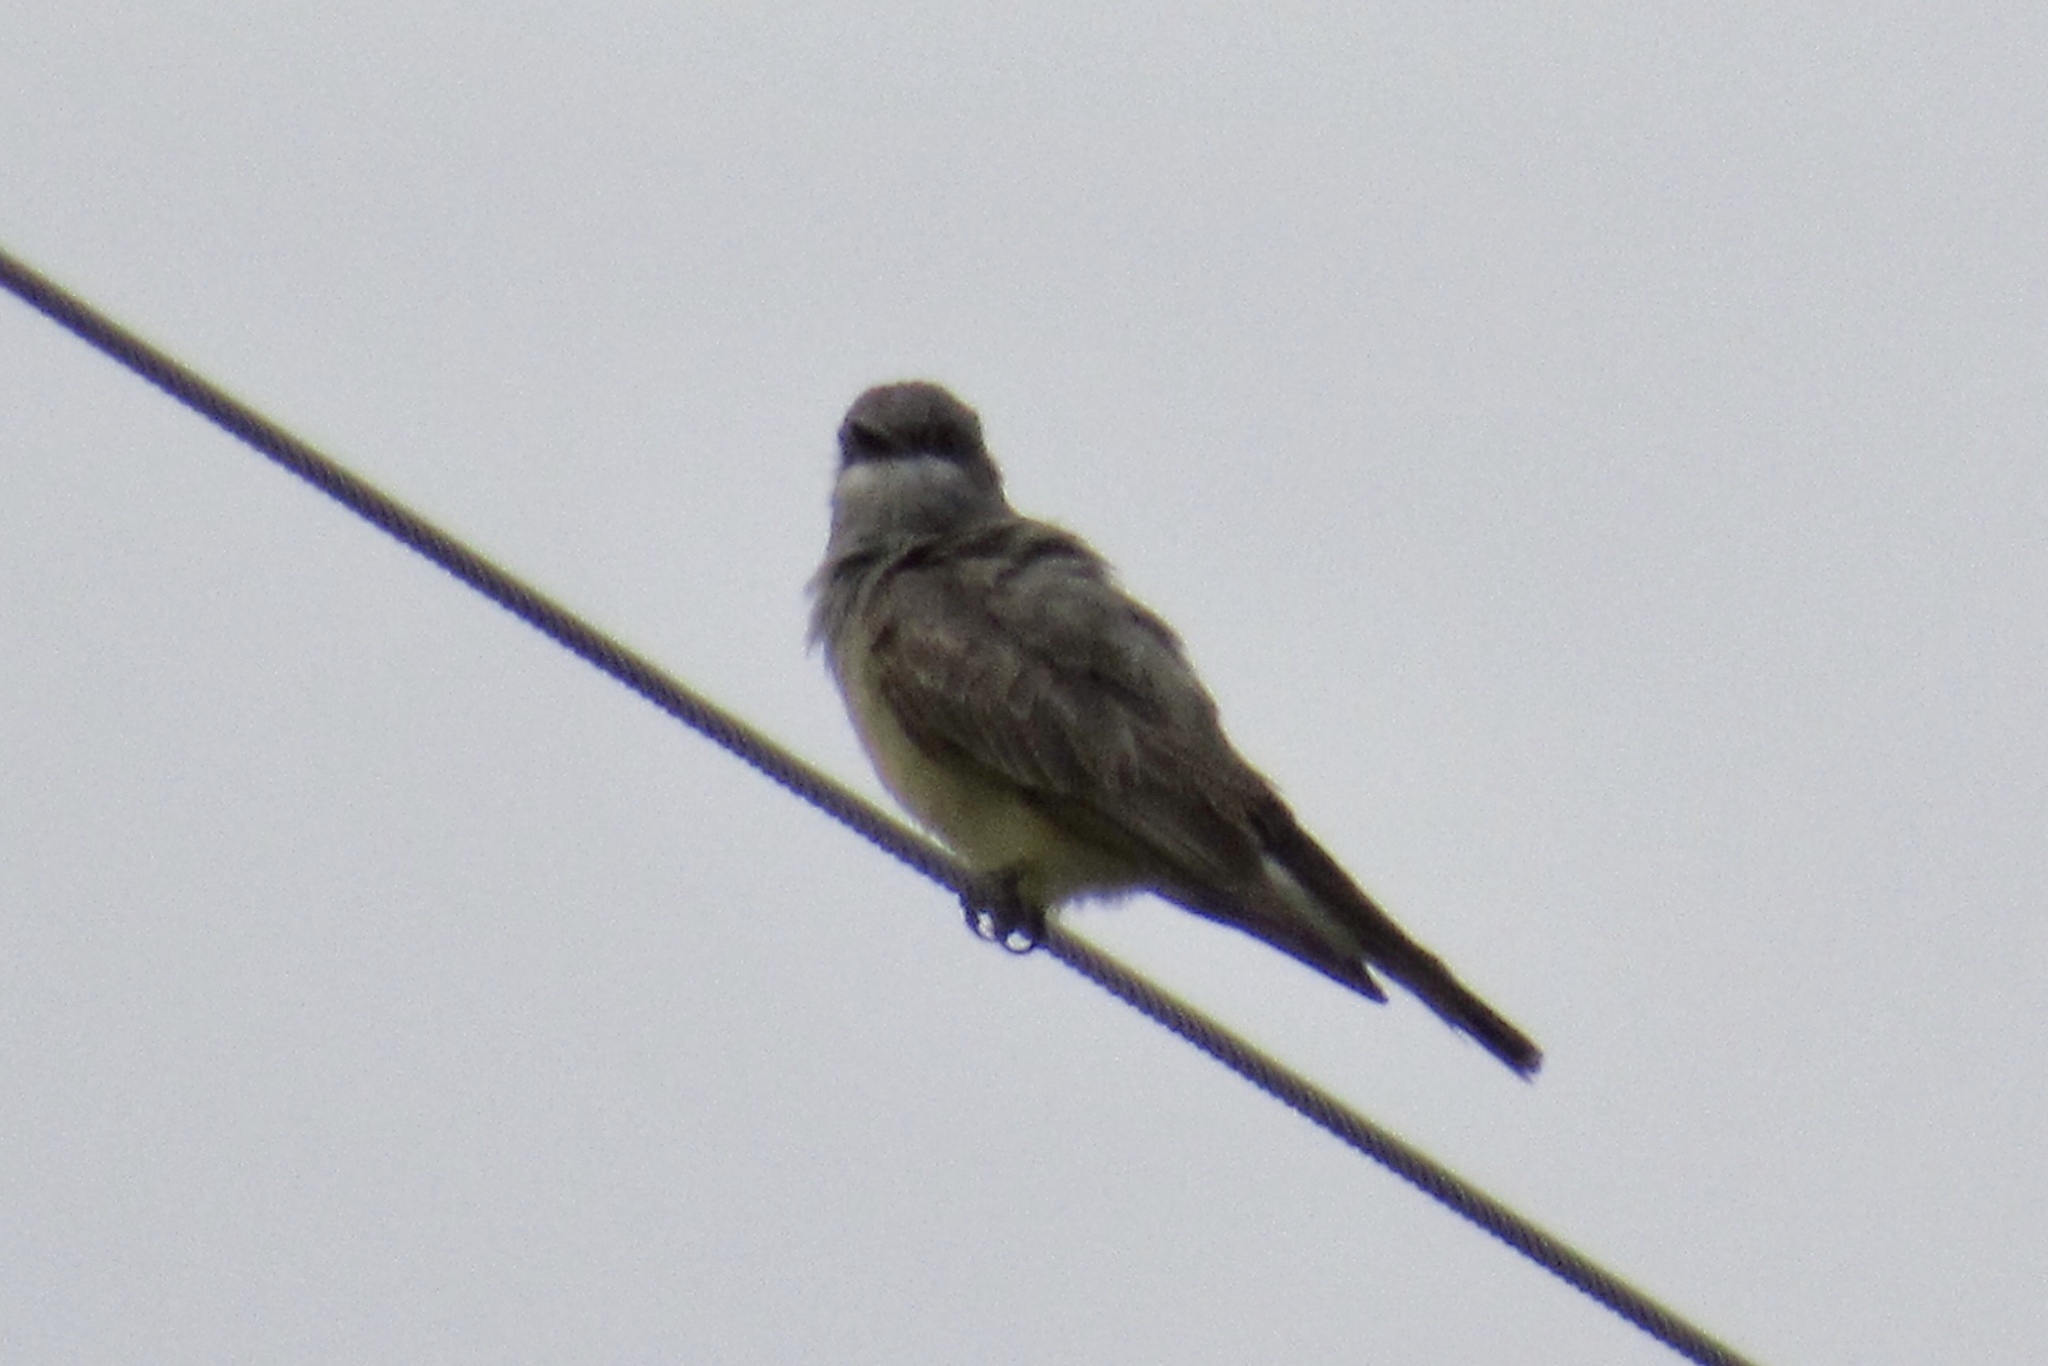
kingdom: Animalia
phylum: Chordata
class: Aves
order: Passeriformes
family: Tyrannidae
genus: Tyrannus
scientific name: Tyrannus vociferans
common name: Cassin's kingbird
